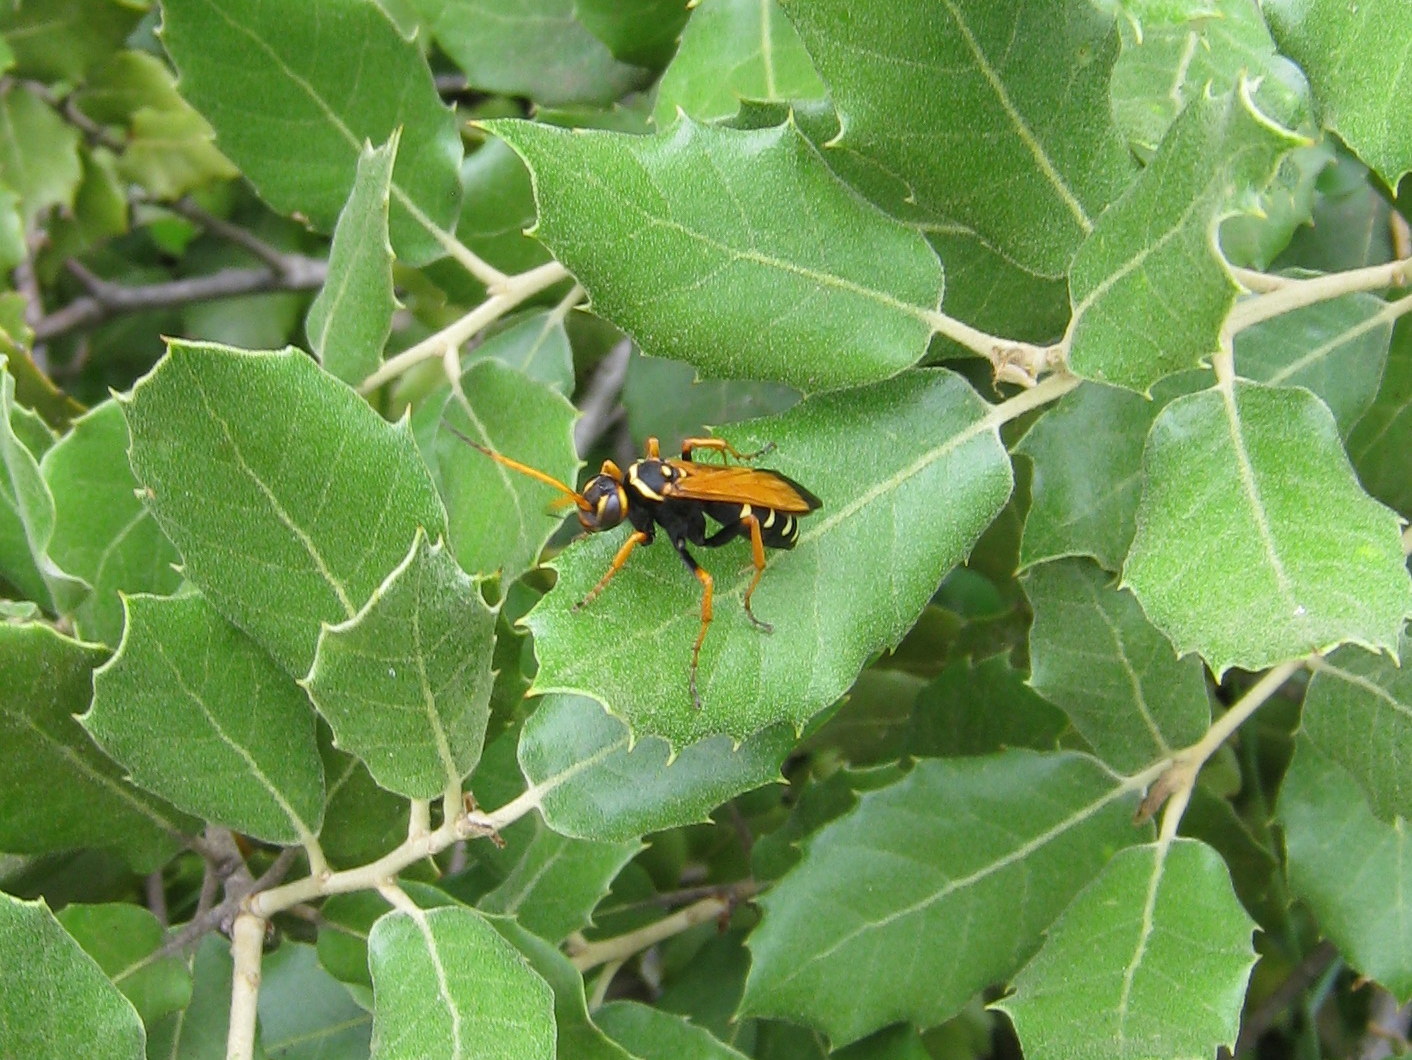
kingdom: Animalia
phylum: Arthropoda
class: Insecta
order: Hymenoptera
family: Pompilidae
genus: Parabatozonus
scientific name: Parabatozonus lacerticida
